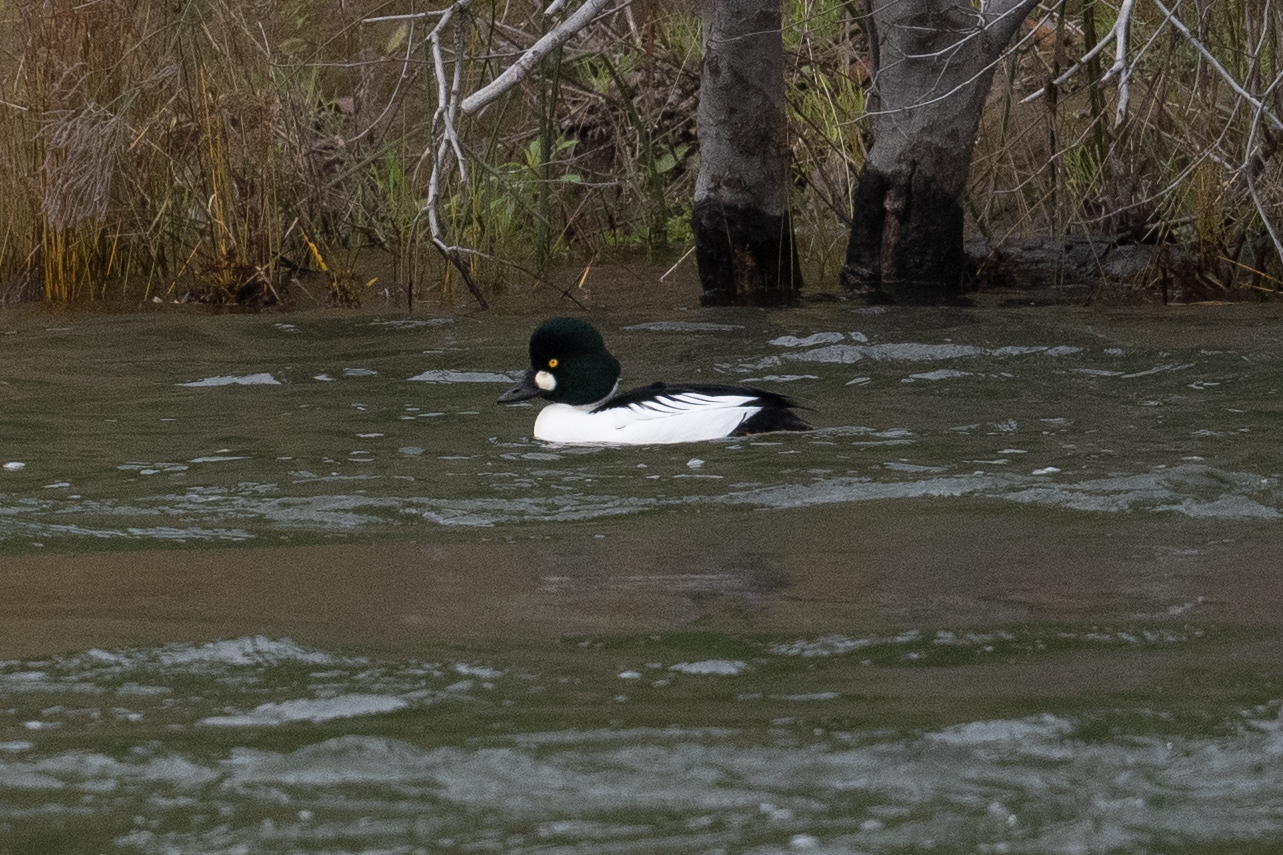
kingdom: Animalia
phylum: Chordata
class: Aves
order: Anseriformes
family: Anatidae
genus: Bucephala
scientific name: Bucephala clangula
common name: Common goldeneye
